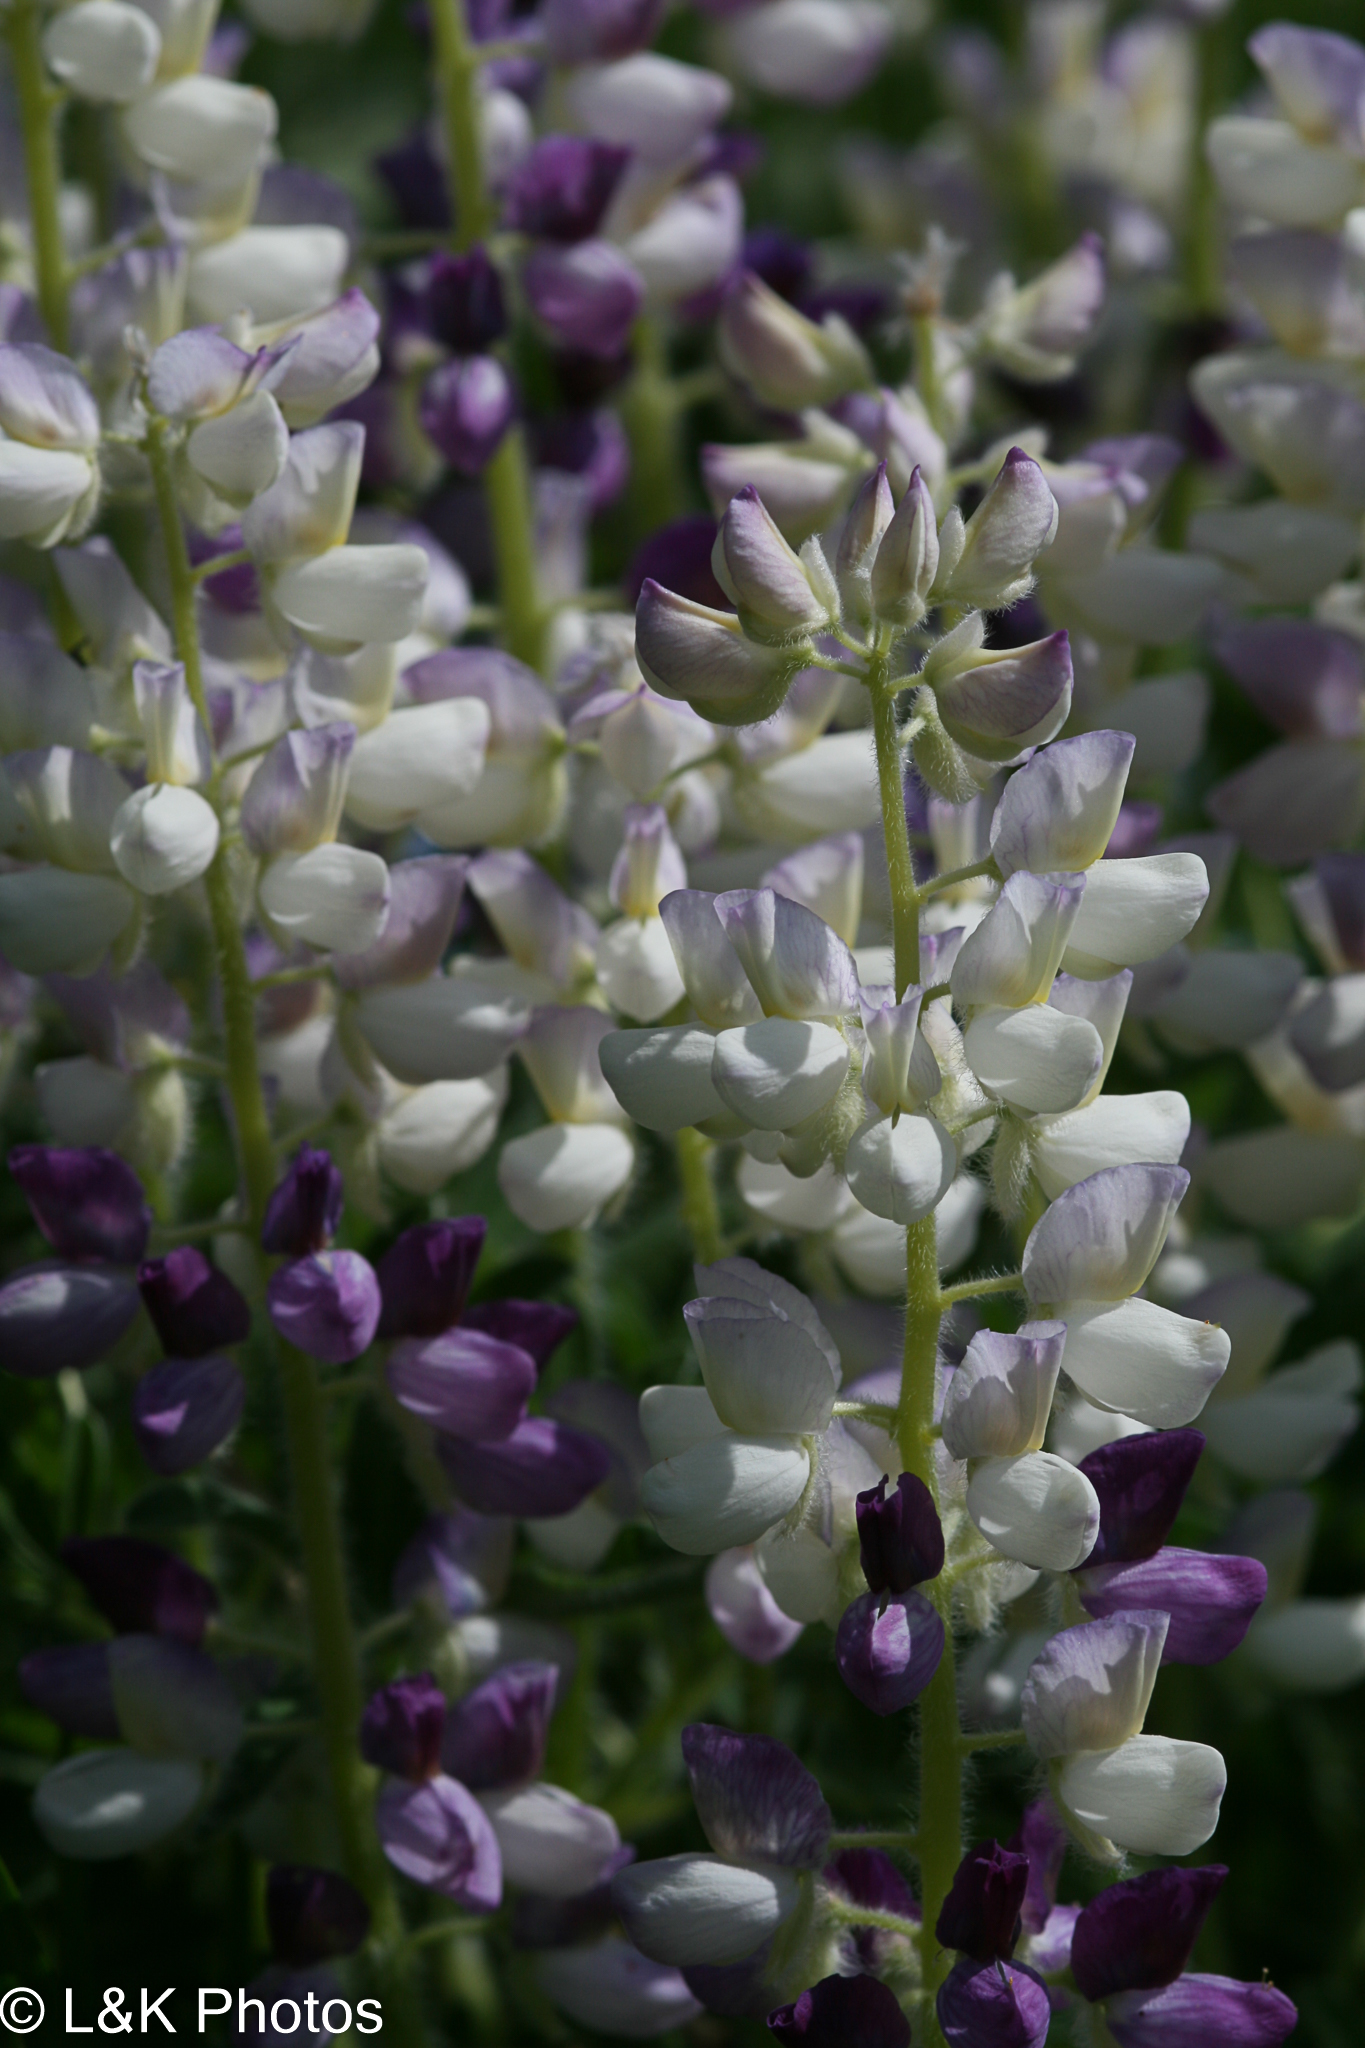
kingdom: Plantae
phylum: Tracheophyta
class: Magnoliopsida
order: Fabales
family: Fabaceae
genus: Lupinus
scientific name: Lupinus nootkatensis
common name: Nootka lupine
